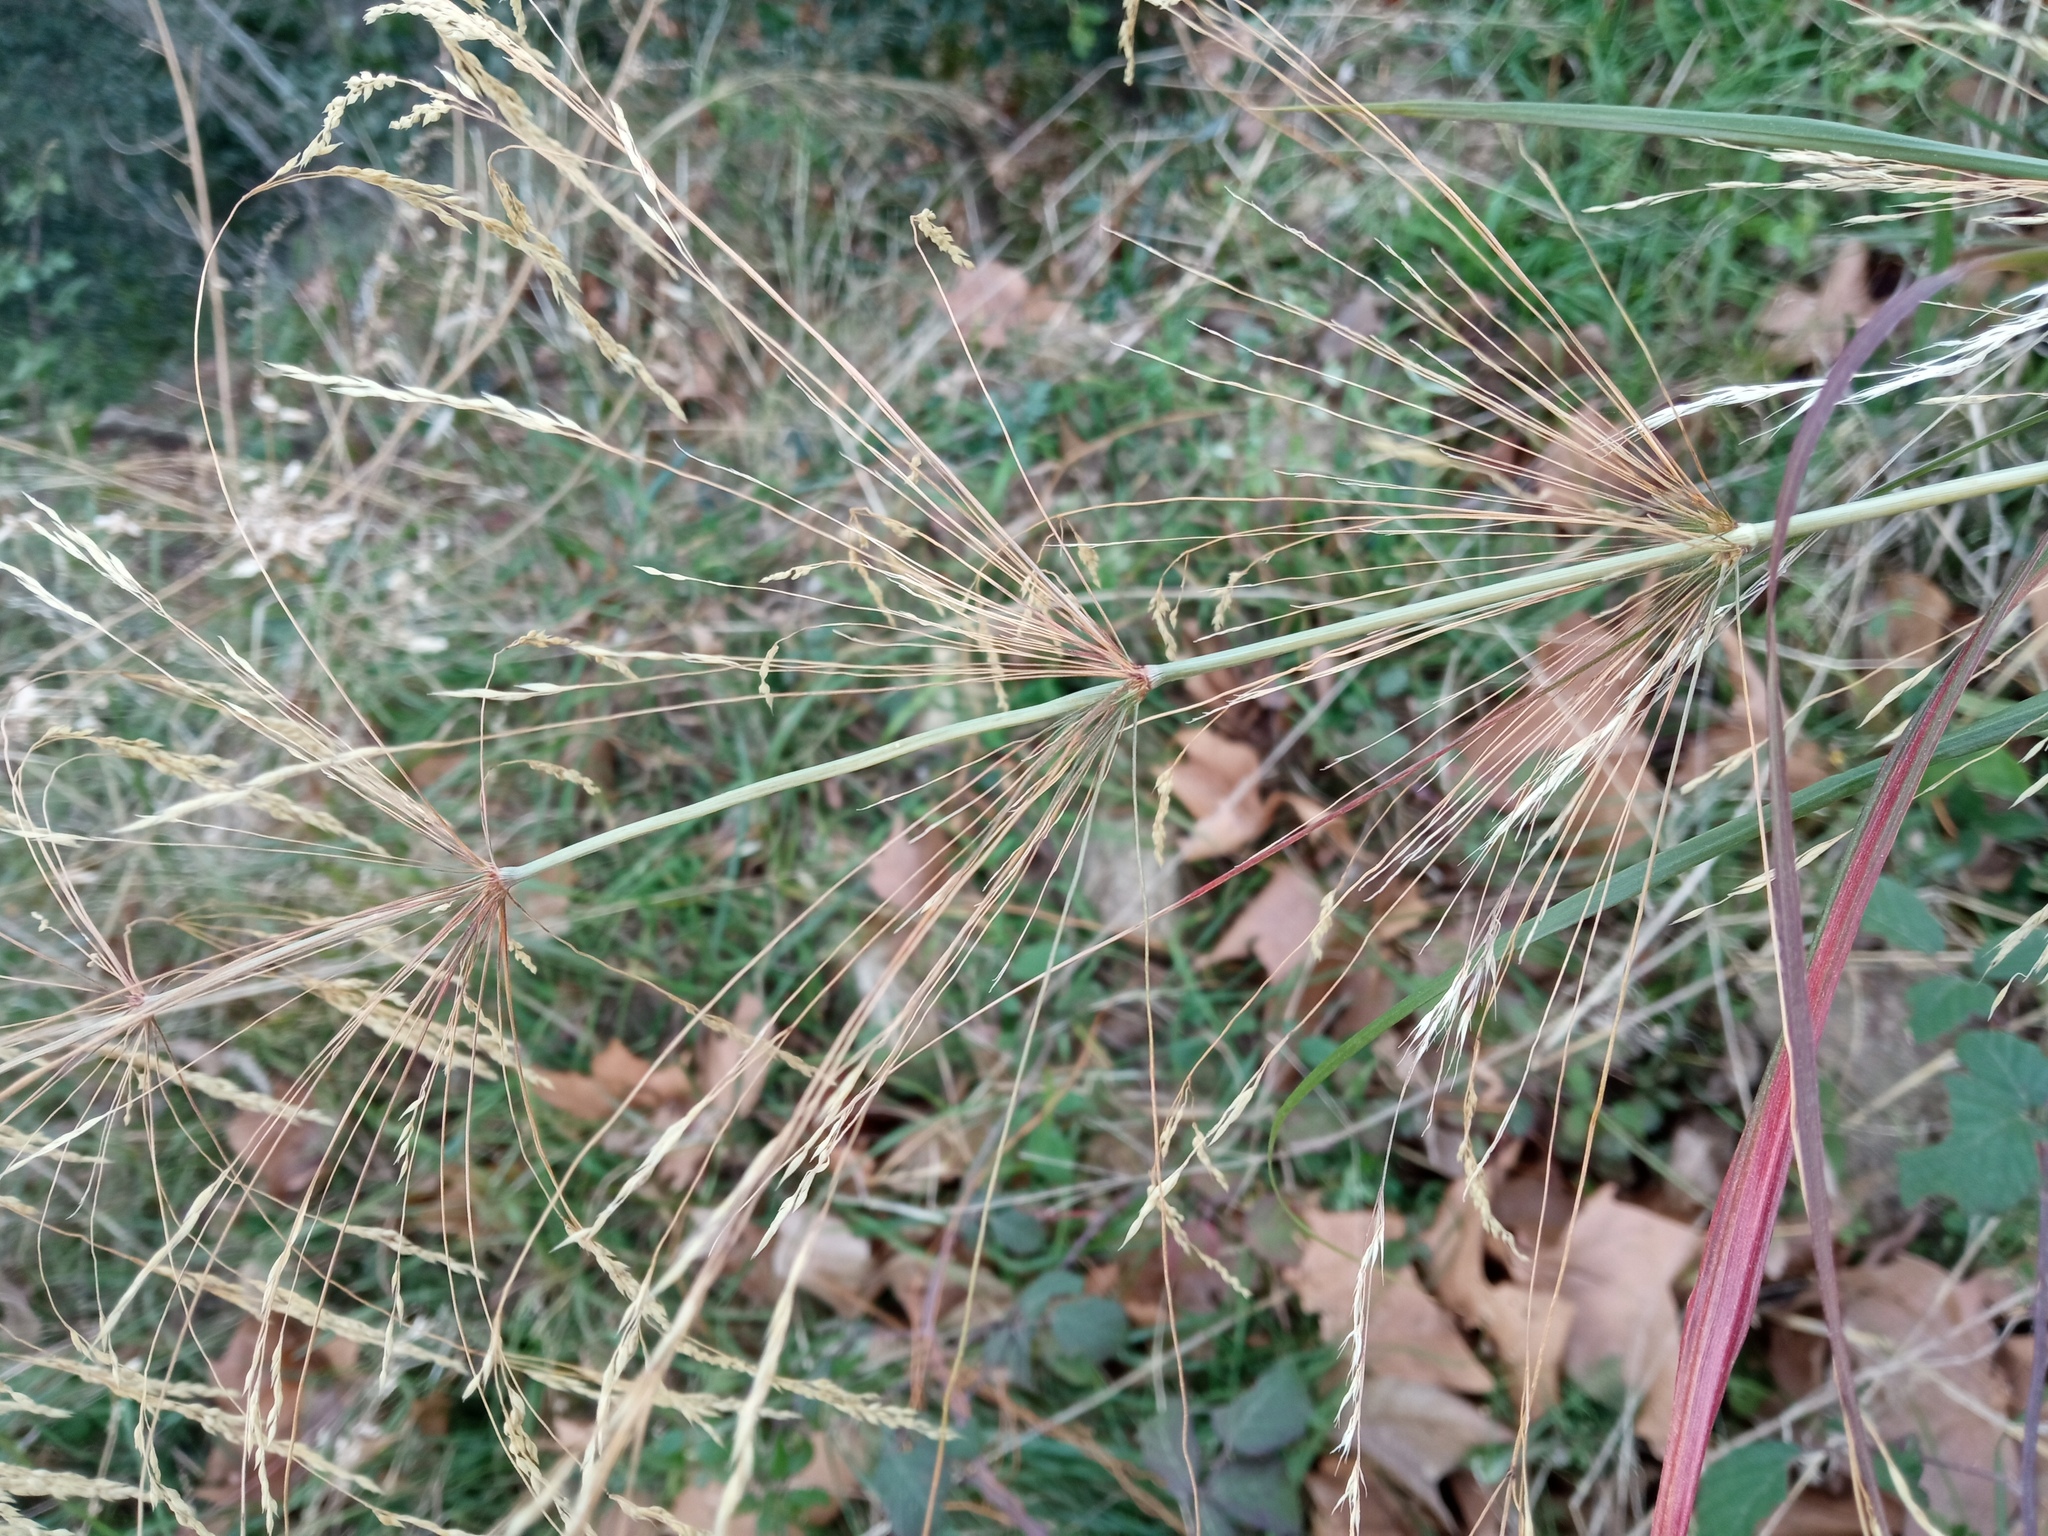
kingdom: Plantae
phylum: Tracheophyta
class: Liliopsida
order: Poales
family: Poaceae
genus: Oloptum
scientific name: Oloptum thomasii
